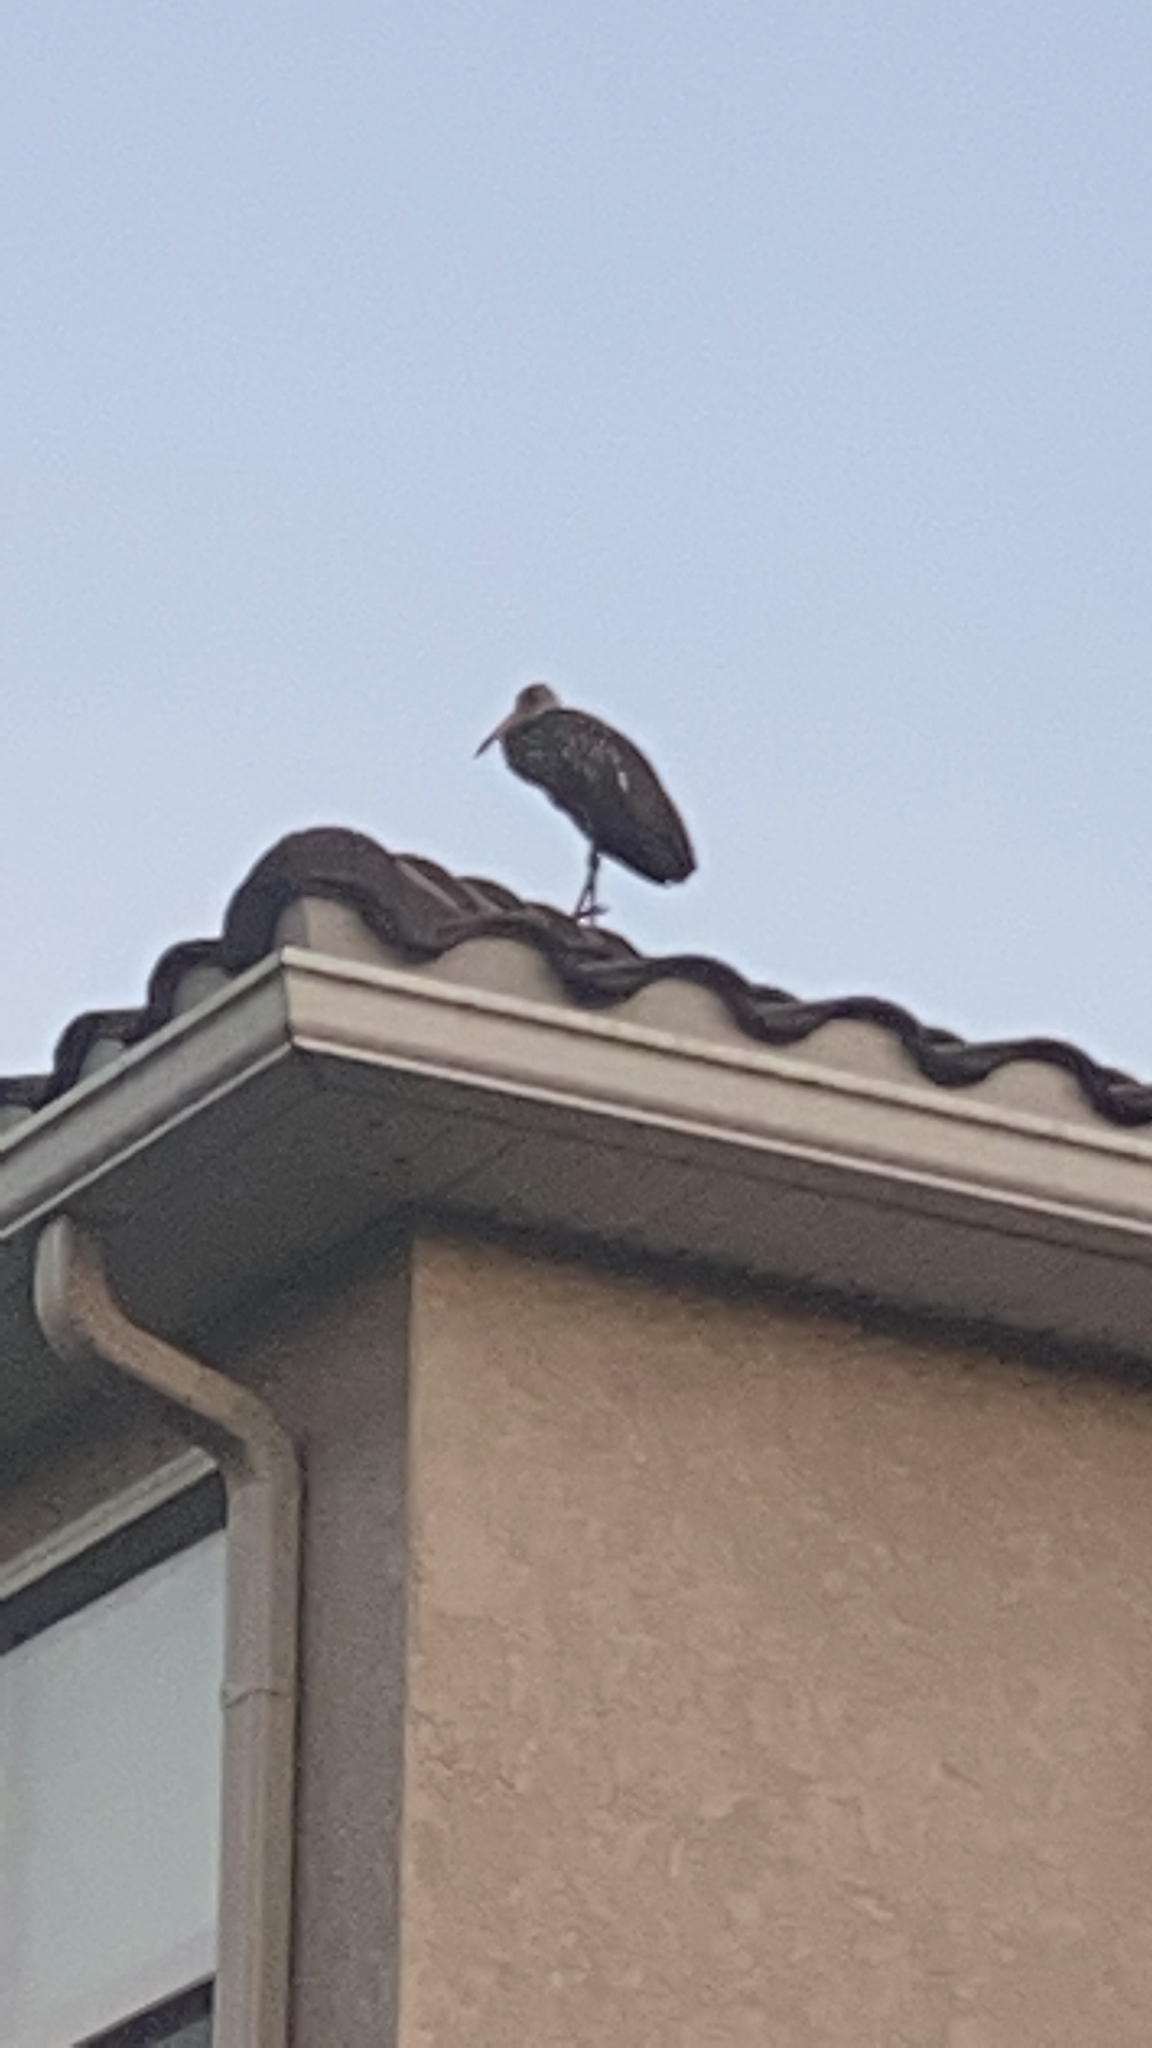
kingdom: Animalia
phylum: Chordata
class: Aves
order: Gruiformes
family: Aramidae
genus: Aramus
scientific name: Aramus guarauna
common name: Limpkin
